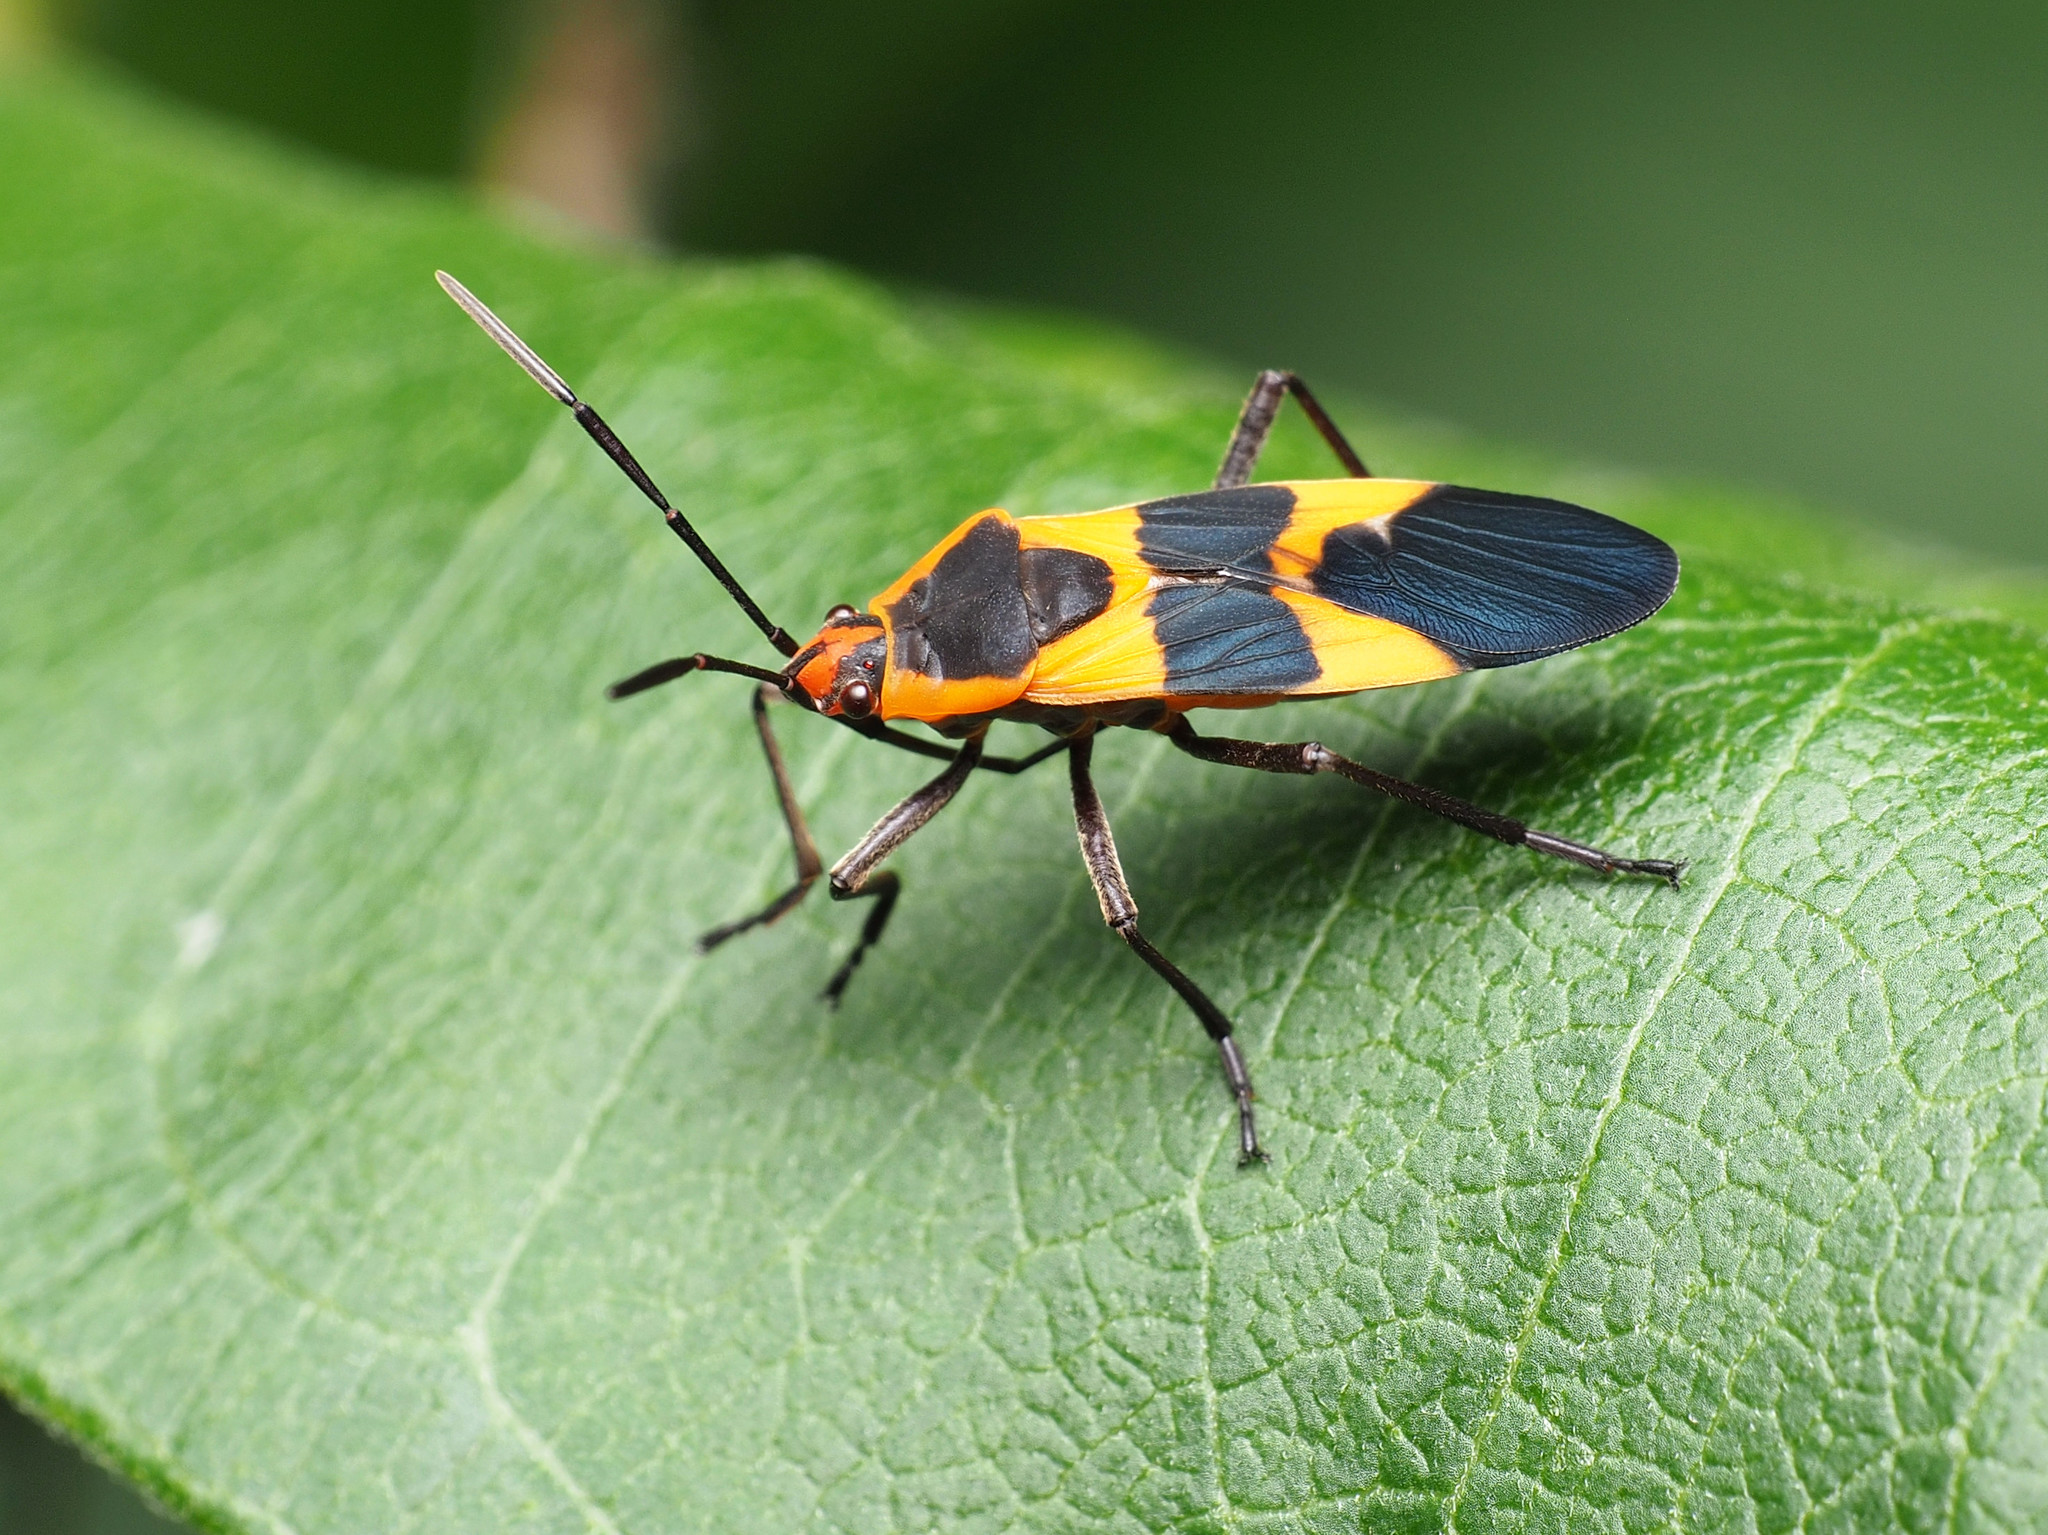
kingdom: Animalia
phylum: Arthropoda
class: Insecta
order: Hemiptera
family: Lygaeidae
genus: Oncopeltus
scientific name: Oncopeltus fasciatus
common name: Large milkweed bug
